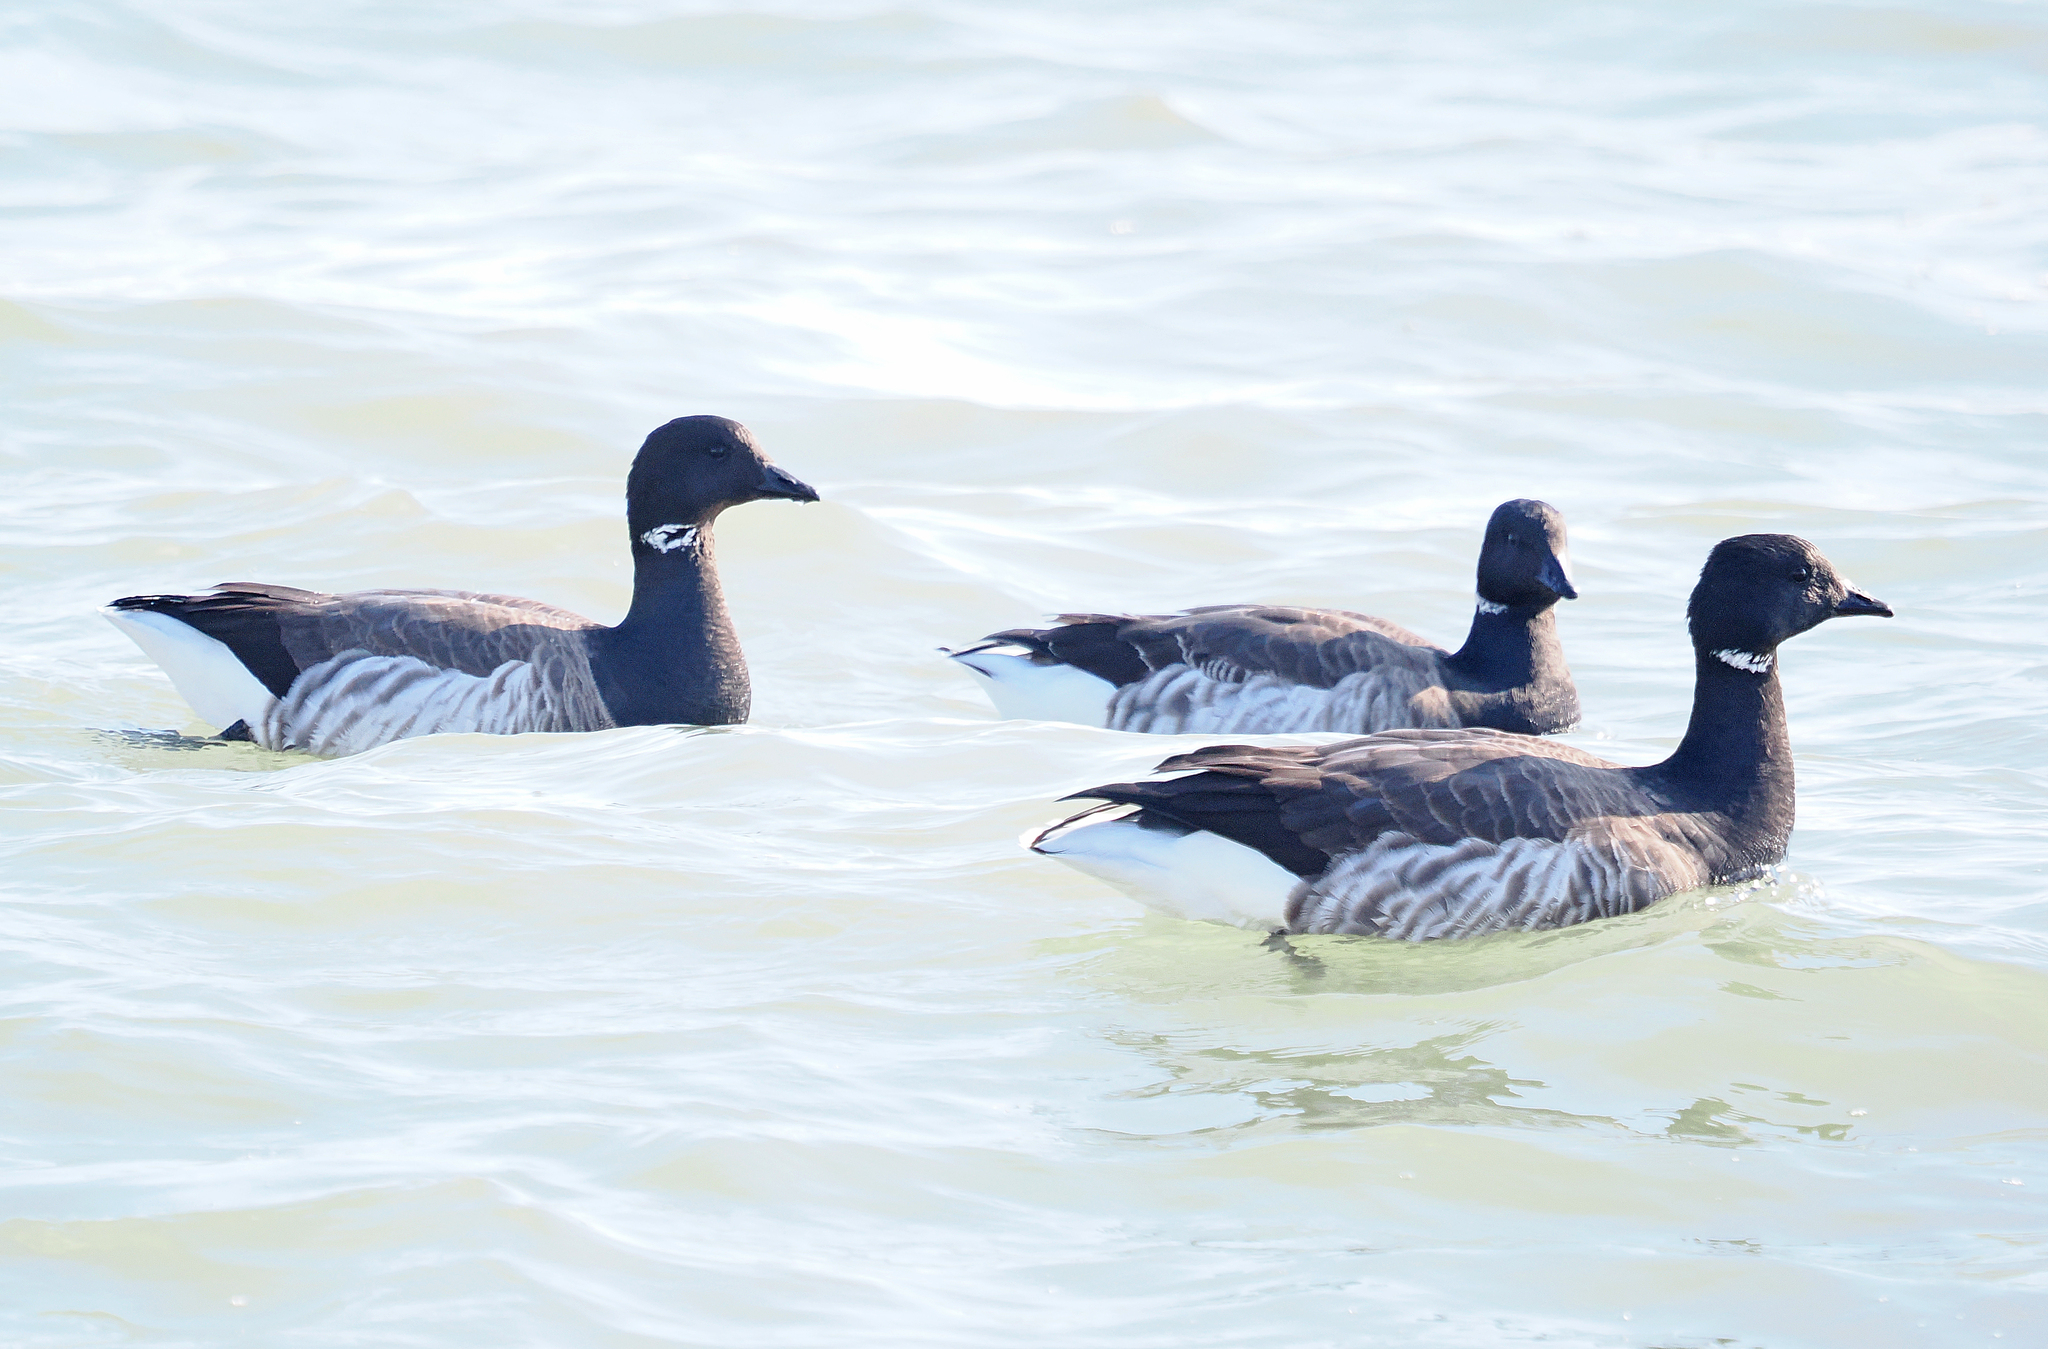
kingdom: Animalia
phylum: Chordata
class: Aves
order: Anseriformes
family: Anatidae
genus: Branta
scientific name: Branta bernicla
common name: Brant goose
